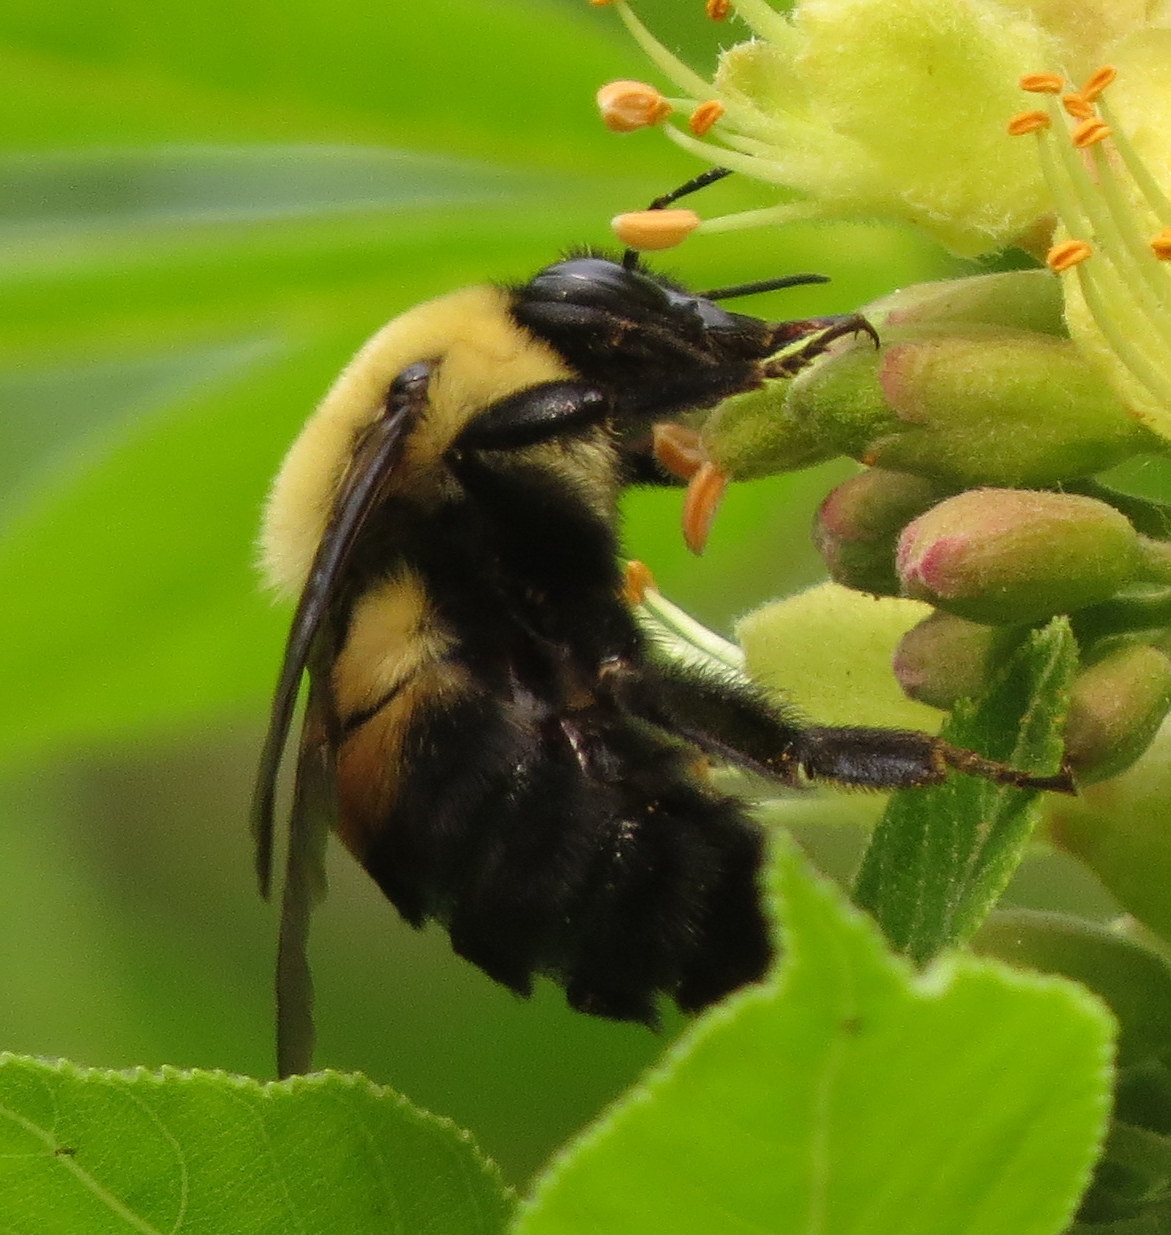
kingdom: Animalia
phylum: Arthropoda
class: Insecta
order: Hymenoptera
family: Apidae
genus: Bombus
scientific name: Bombus griseocollis
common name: Brown-belted bumble bee
